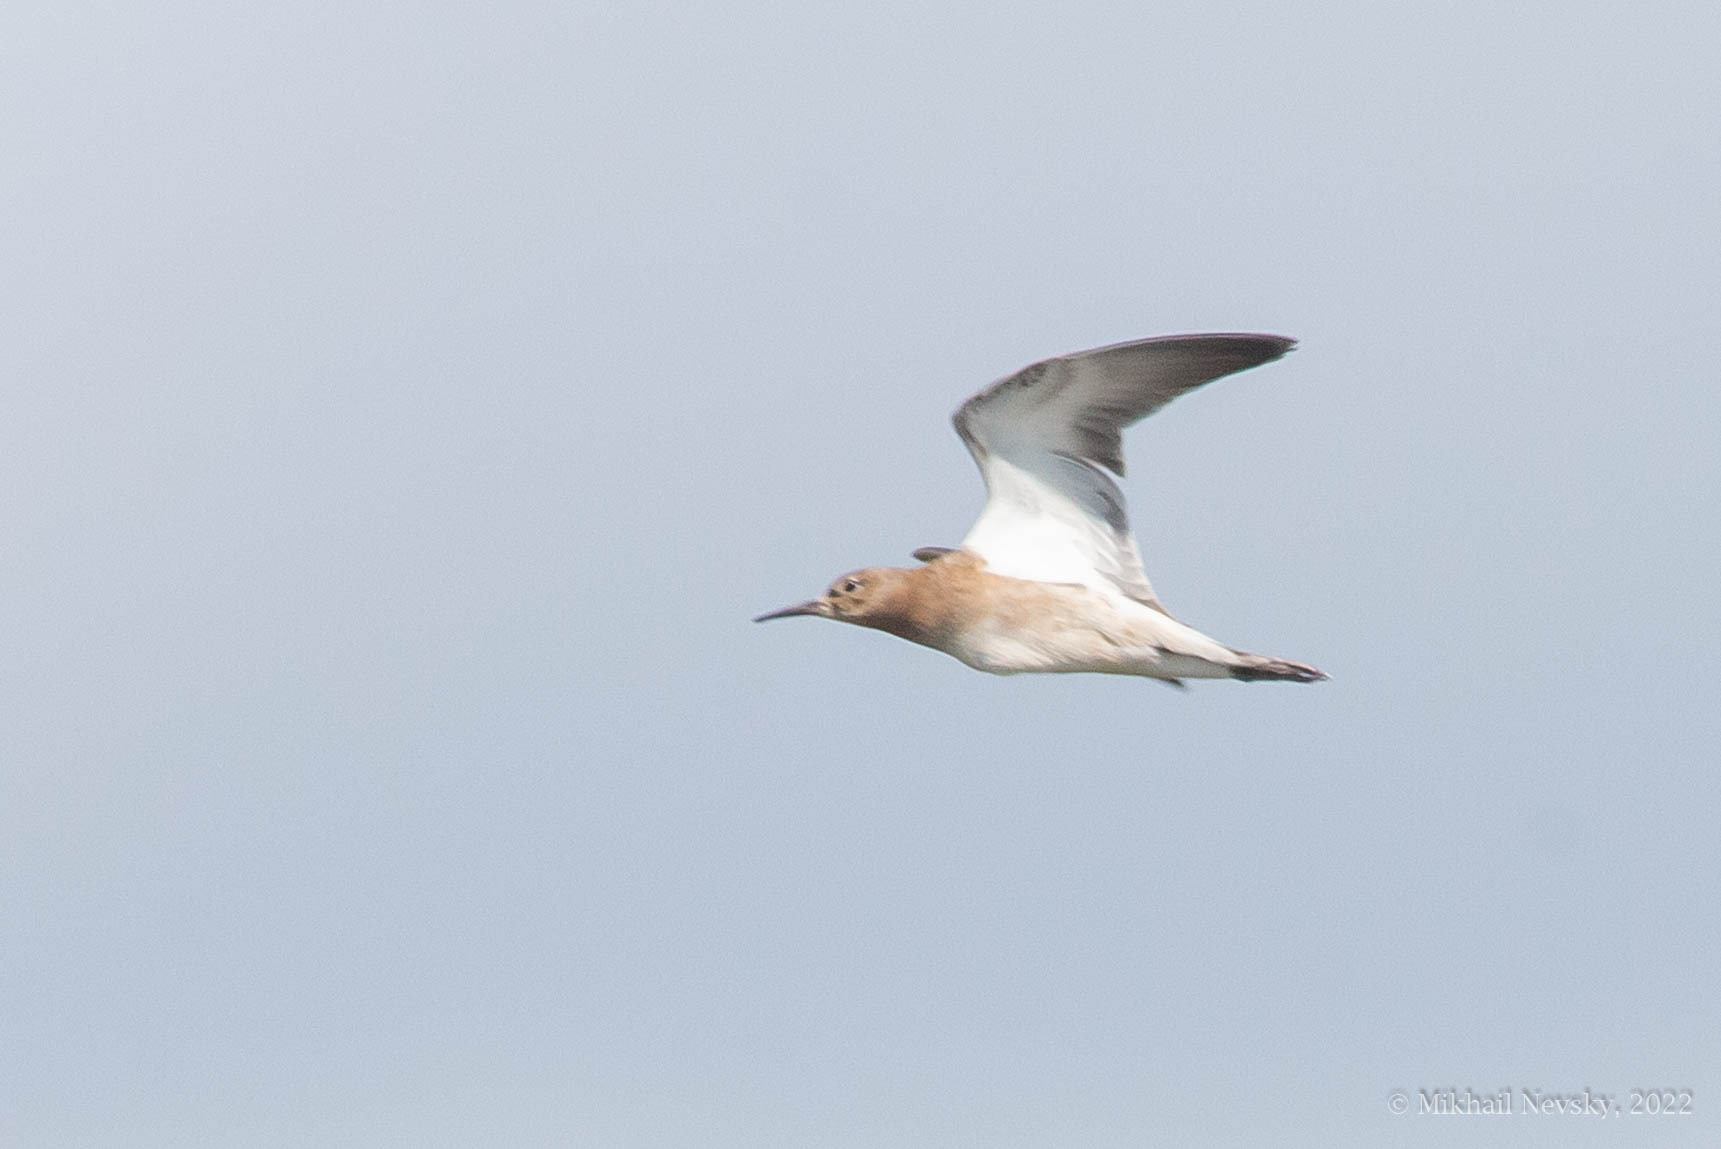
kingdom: Animalia
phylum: Chordata
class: Aves
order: Charadriiformes
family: Scolopacidae
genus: Calidris
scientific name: Calidris pugnax
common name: Ruff
